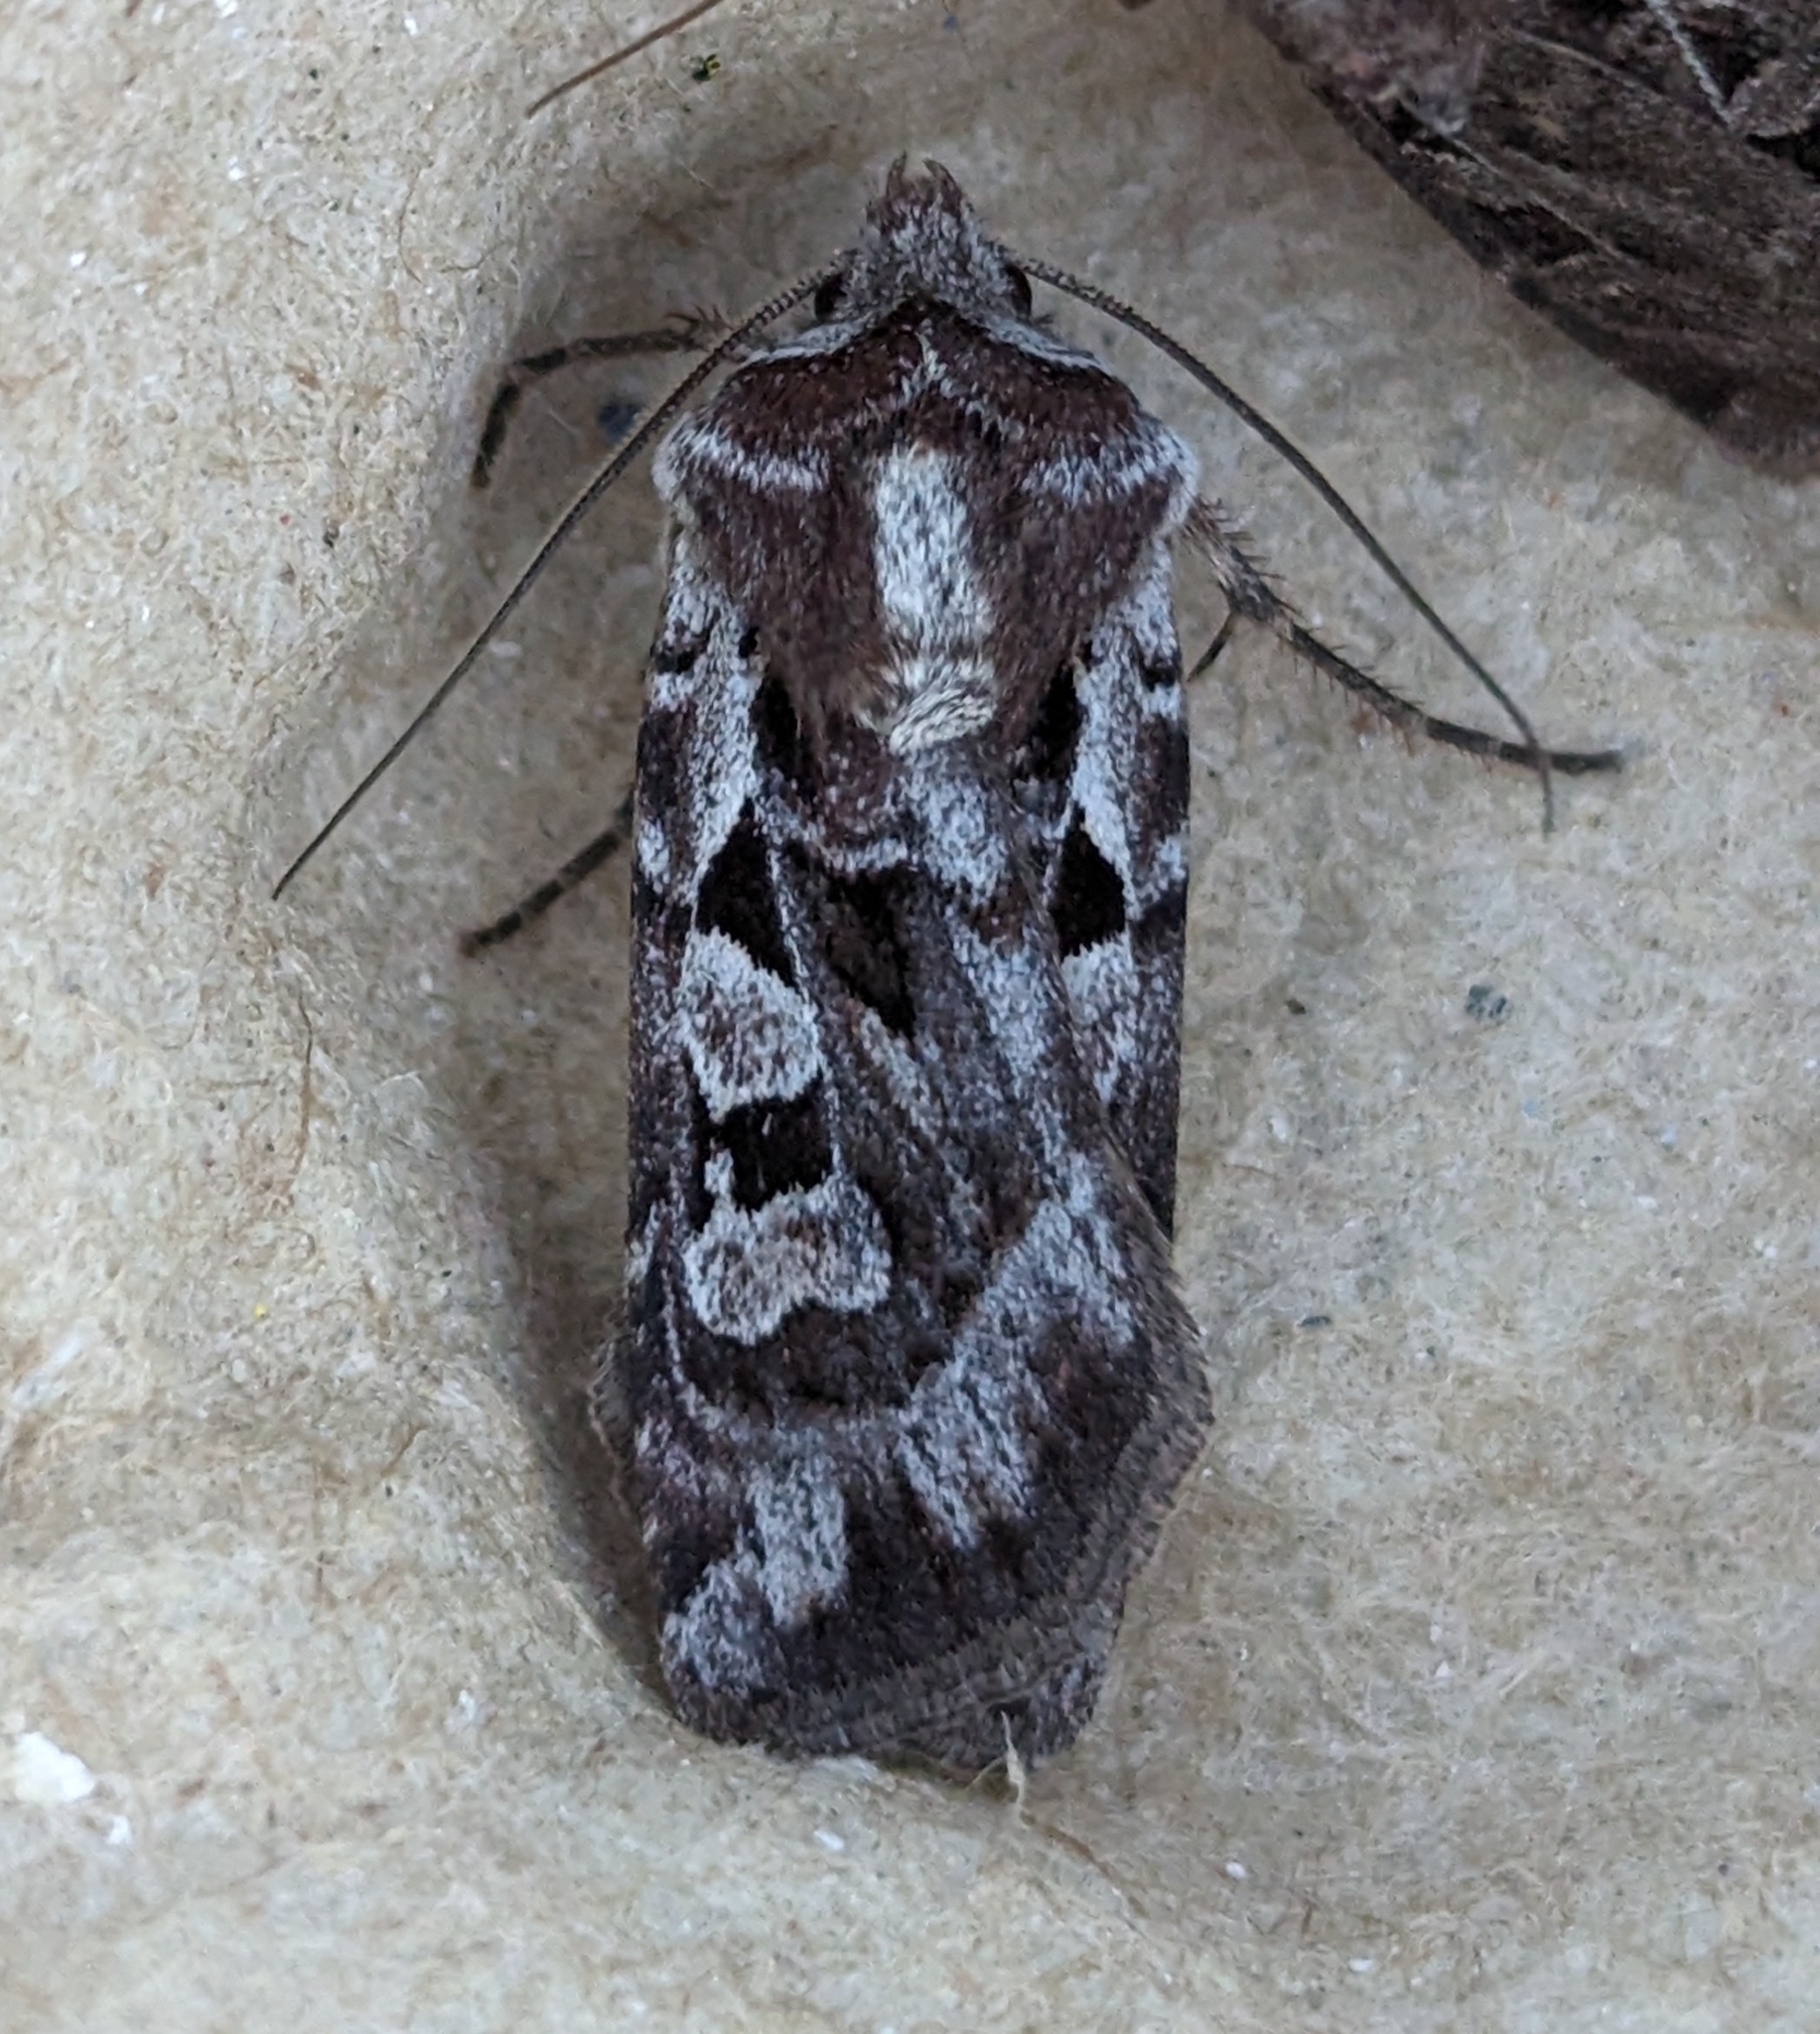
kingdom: Animalia
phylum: Arthropoda
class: Insecta
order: Lepidoptera
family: Noctuidae
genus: Euxoa
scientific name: Euxoa servita
